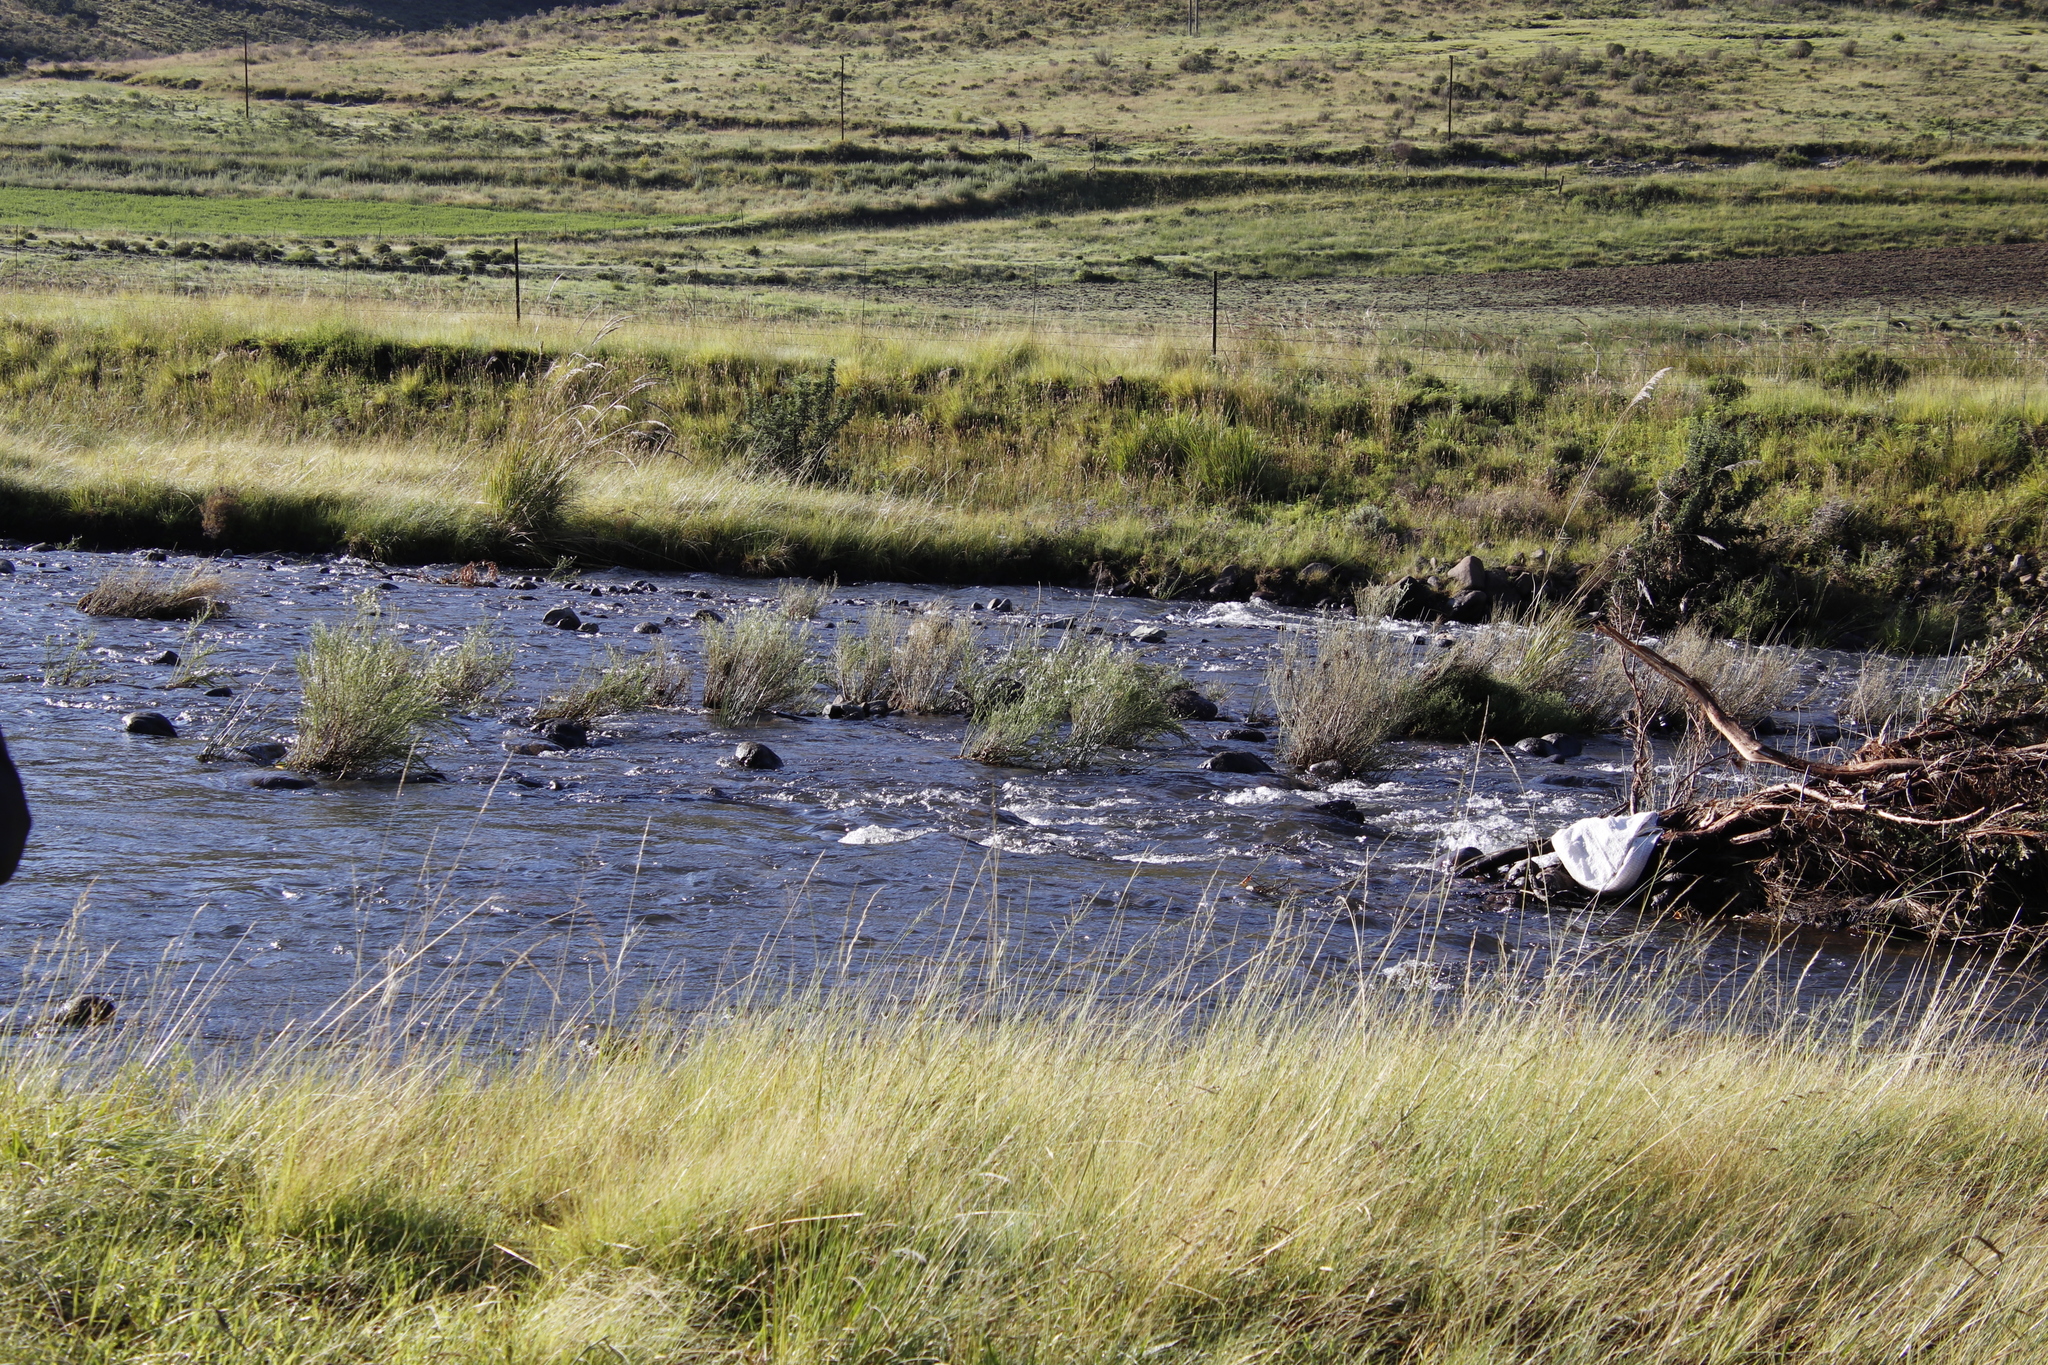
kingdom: Plantae
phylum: Tracheophyta
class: Magnoliopsida
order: Lamiales
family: Scrophulariaceae
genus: Buddleja
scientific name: Buddleja virgata
